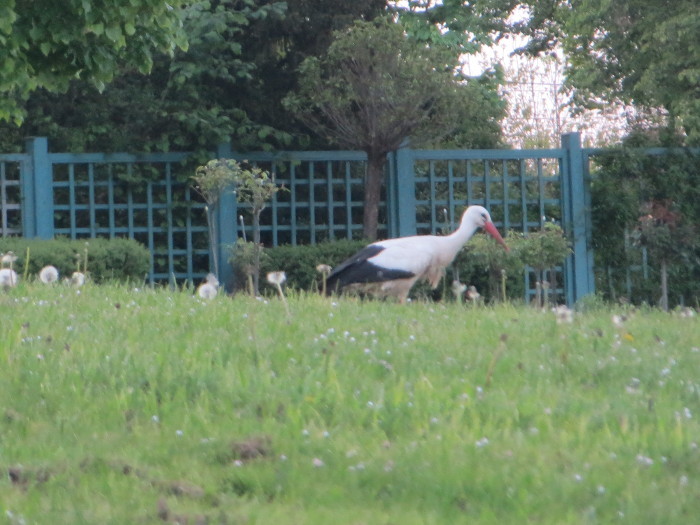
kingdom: Animalia
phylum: Chordata
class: Aves
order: Ciconiiformes
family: Ciconiidae
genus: Ciconia
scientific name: Ciconia ciconia
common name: White stork
